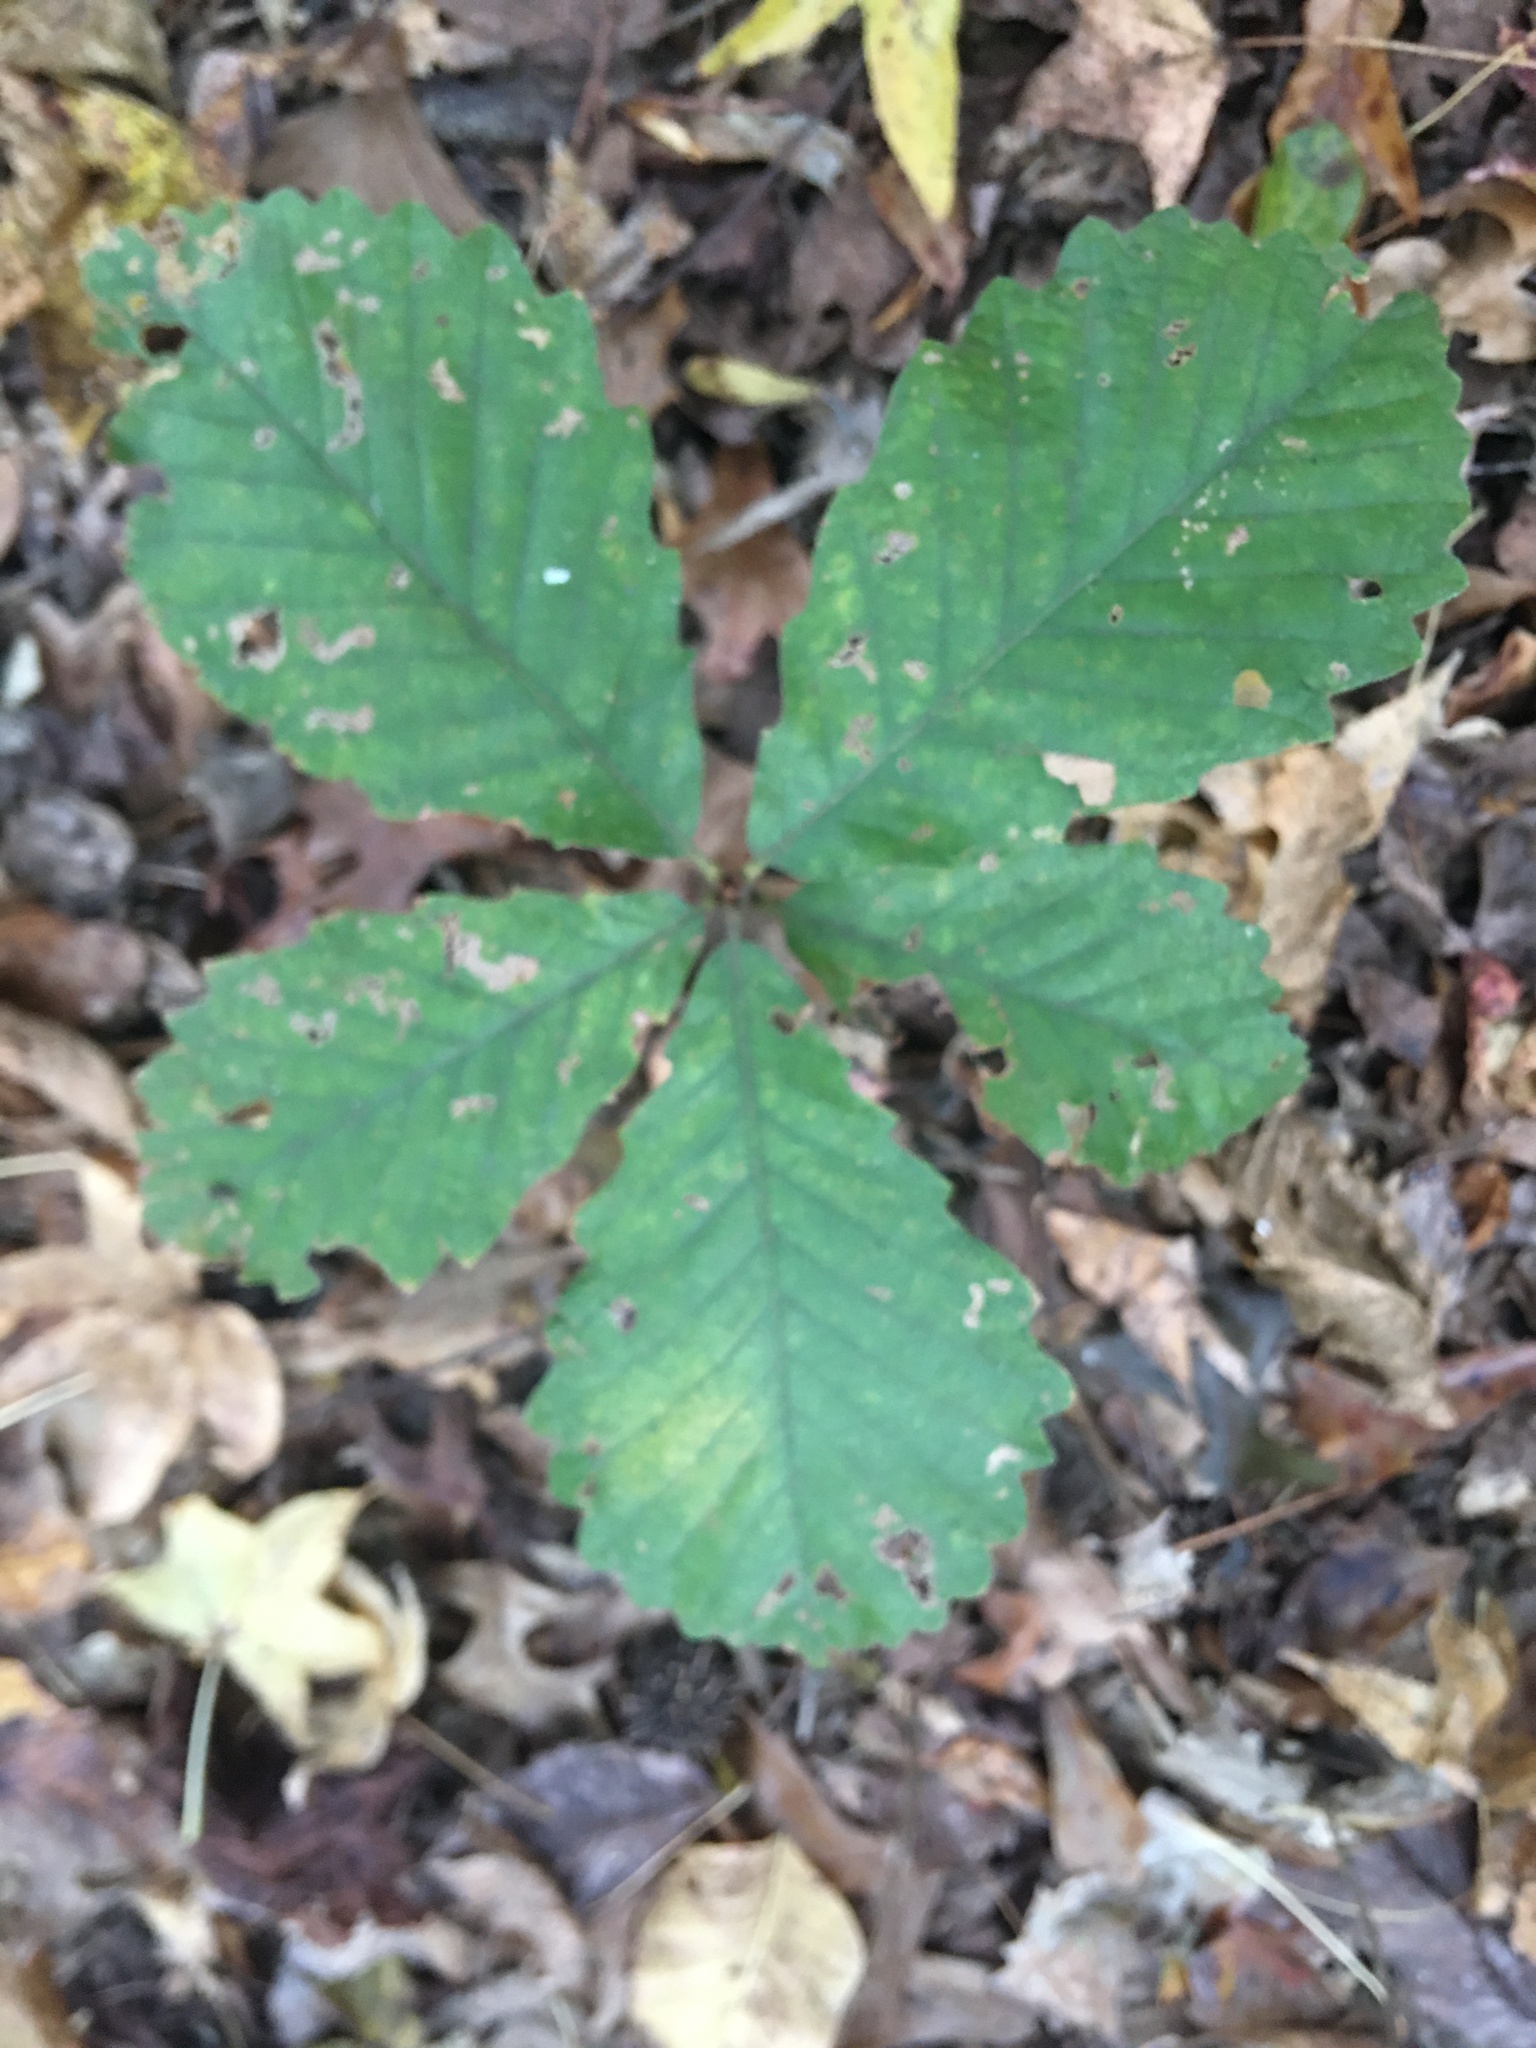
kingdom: Plantae
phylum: Tracheophyta
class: Magnoliopsida
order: Fagales
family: Fagaceae
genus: Quercus
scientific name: Quercus michauxii
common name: Swamp chestnut oak
